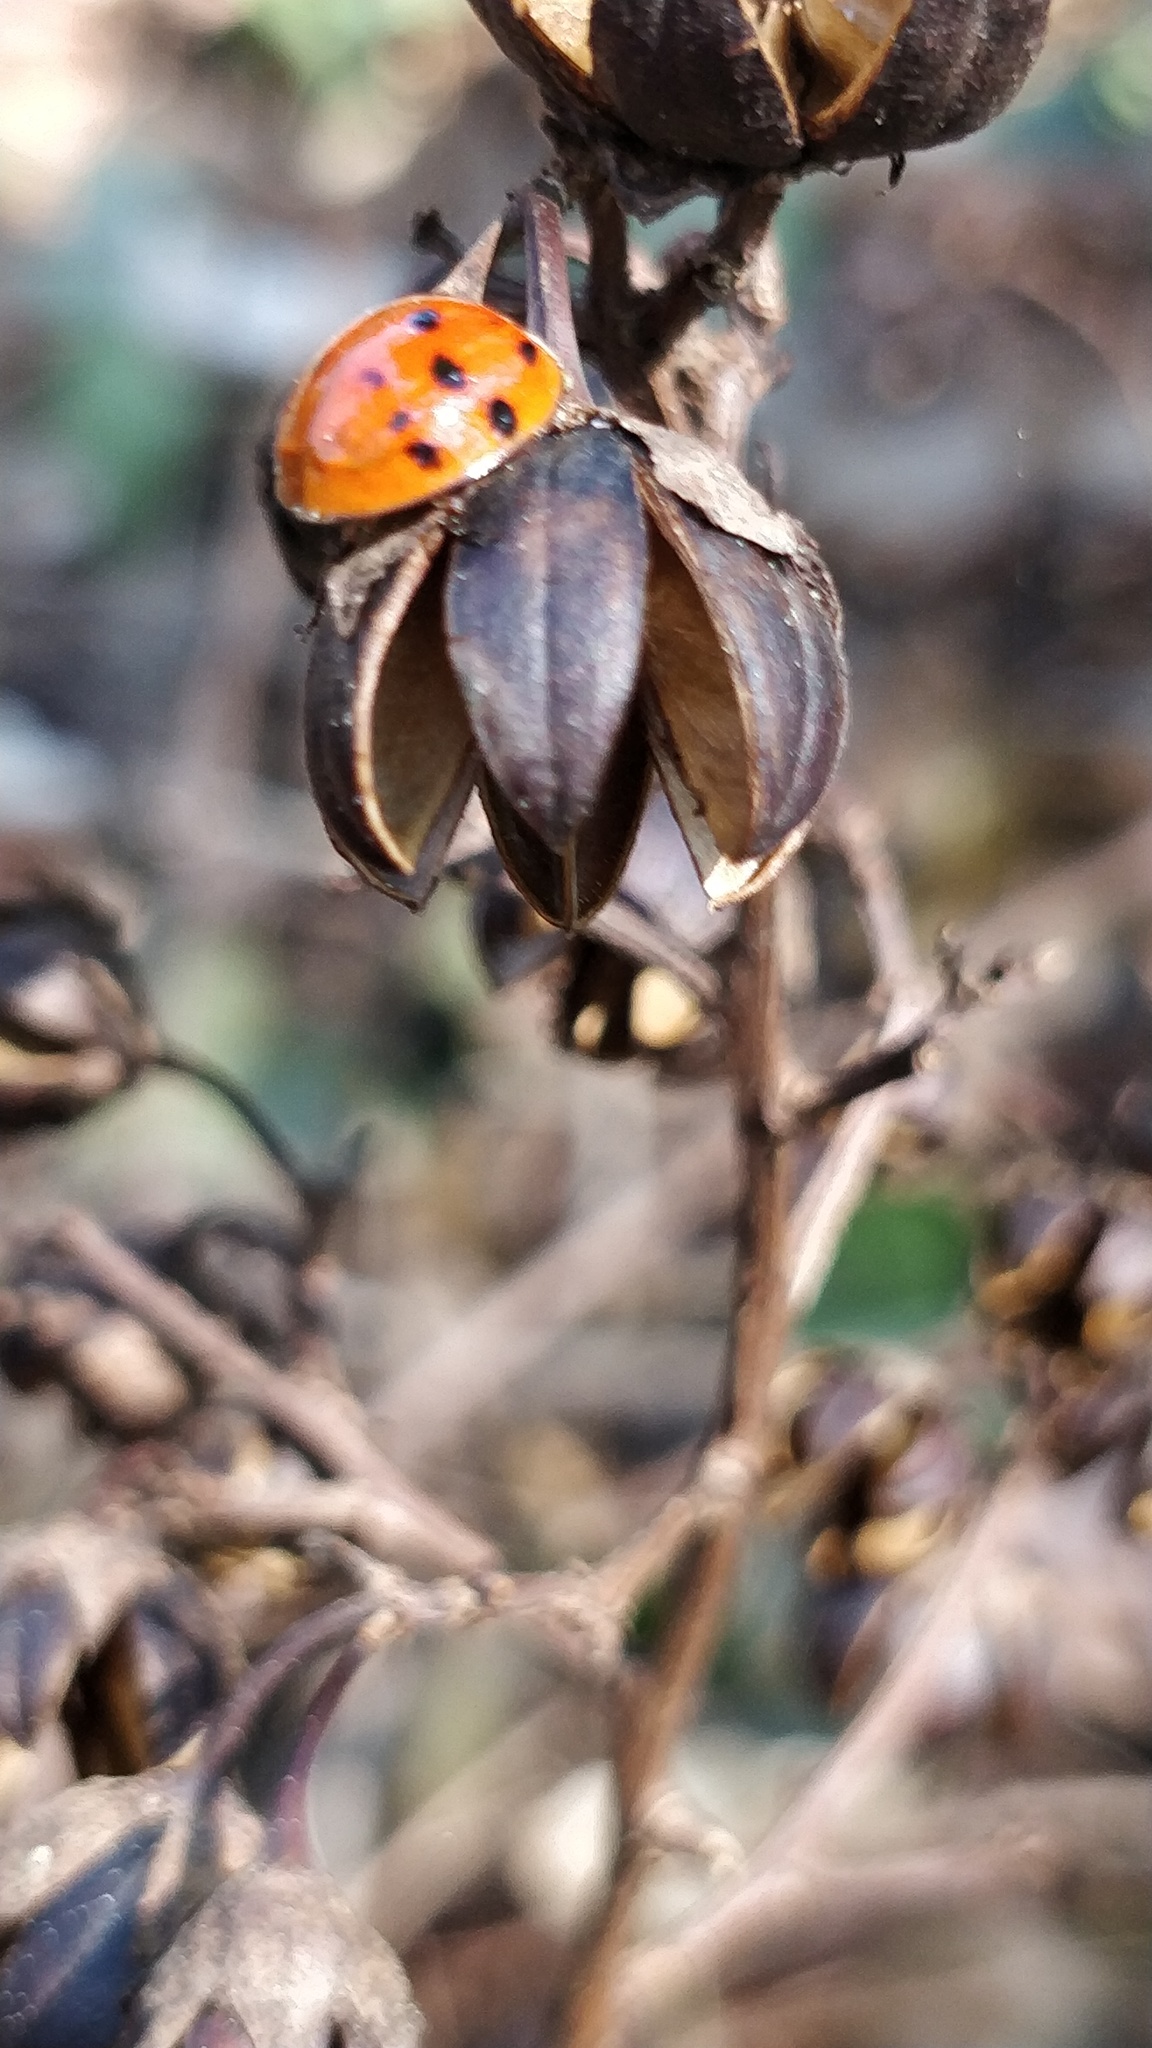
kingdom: Animalia
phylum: Arthropoda
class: Insecta
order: Coleoptera
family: Coccinellidae
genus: Harmonia
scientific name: Harmonia axyridis
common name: Harlequin ladybird
